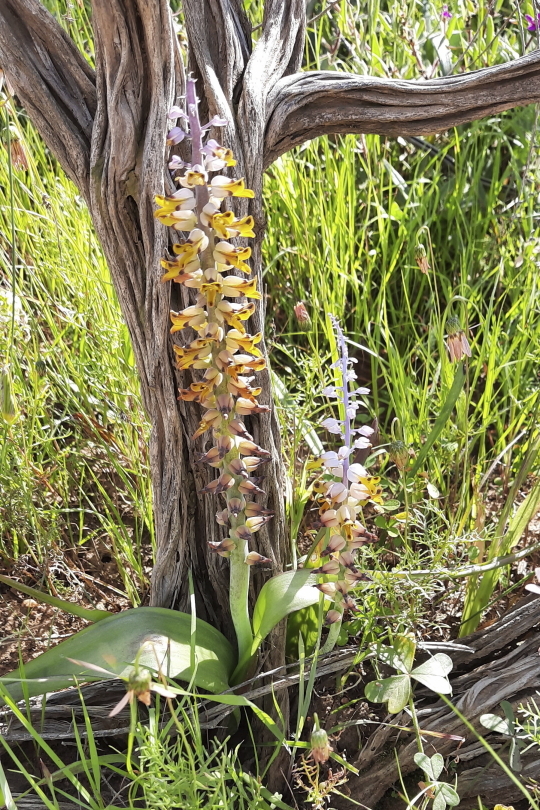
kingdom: Plantae
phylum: Tracheophyta
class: Liliopsida
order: Asparagales
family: Asparagaceae
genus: Lachenalia
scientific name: Lachenalia mutabilis
